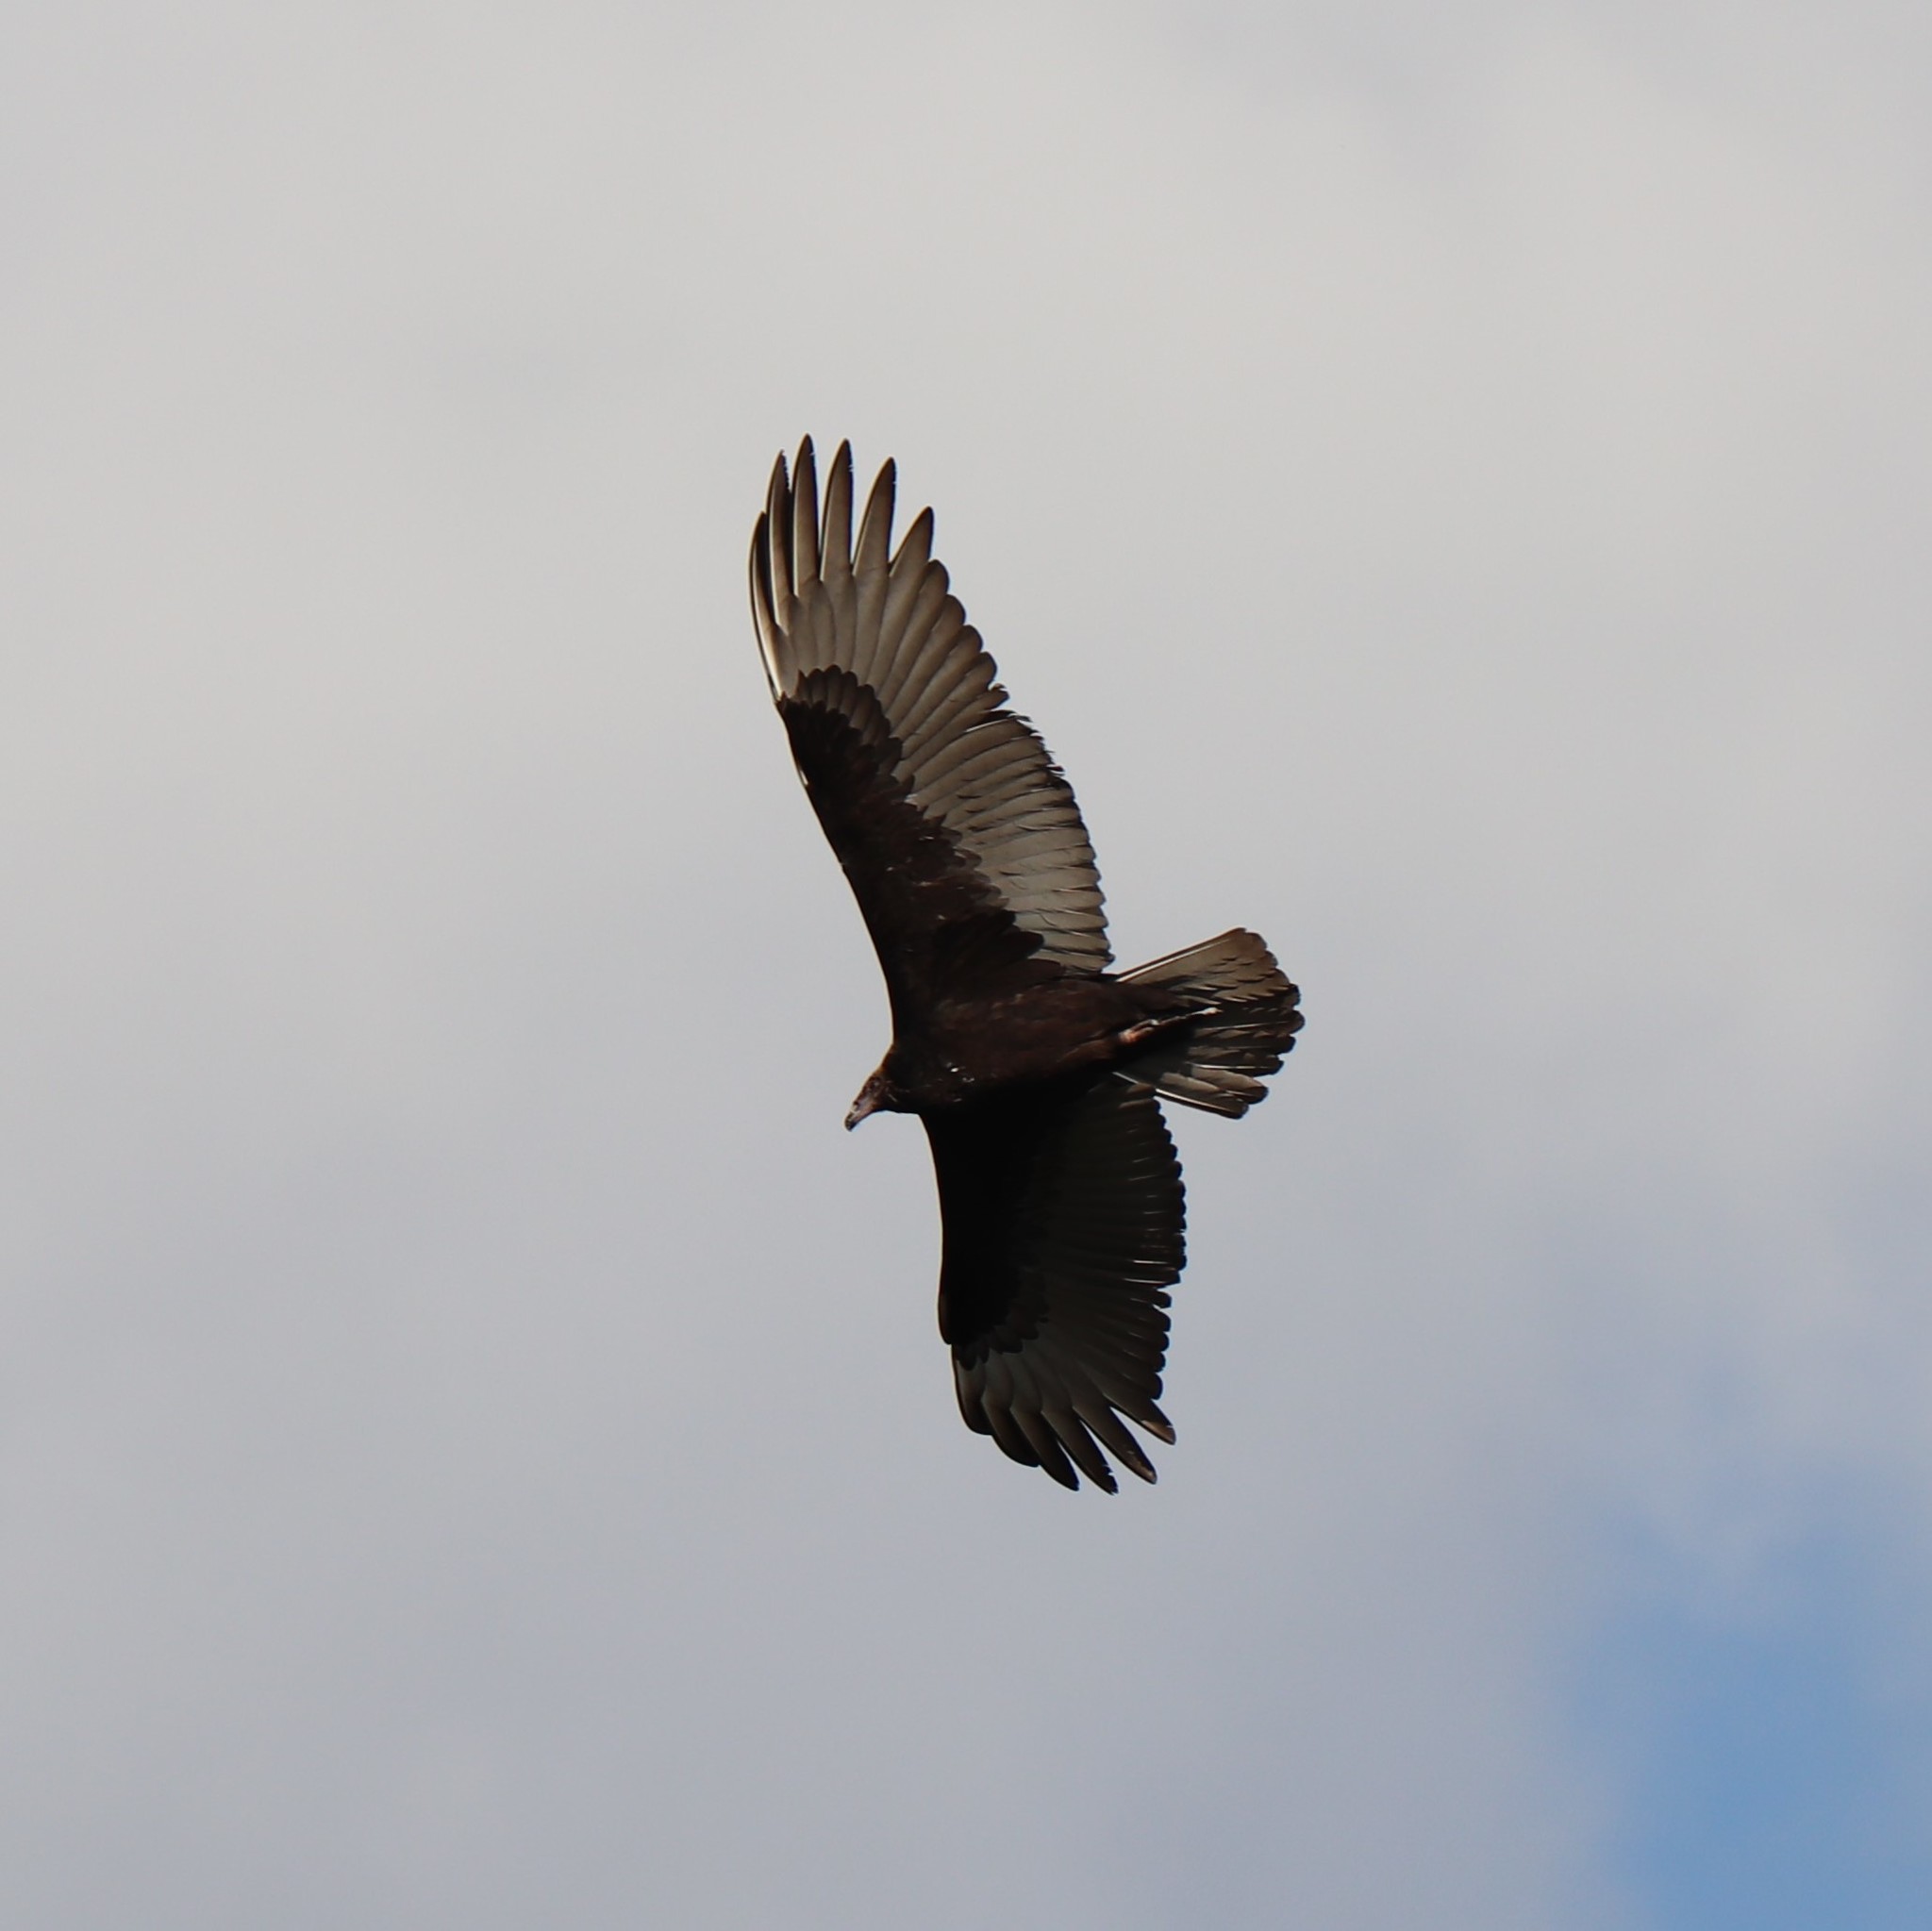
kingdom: Animalia
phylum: Chordata
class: Aves
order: Accipitriformes
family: Cathartidae
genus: Cathartes
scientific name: Cathartes aura
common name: Turkey vulture
